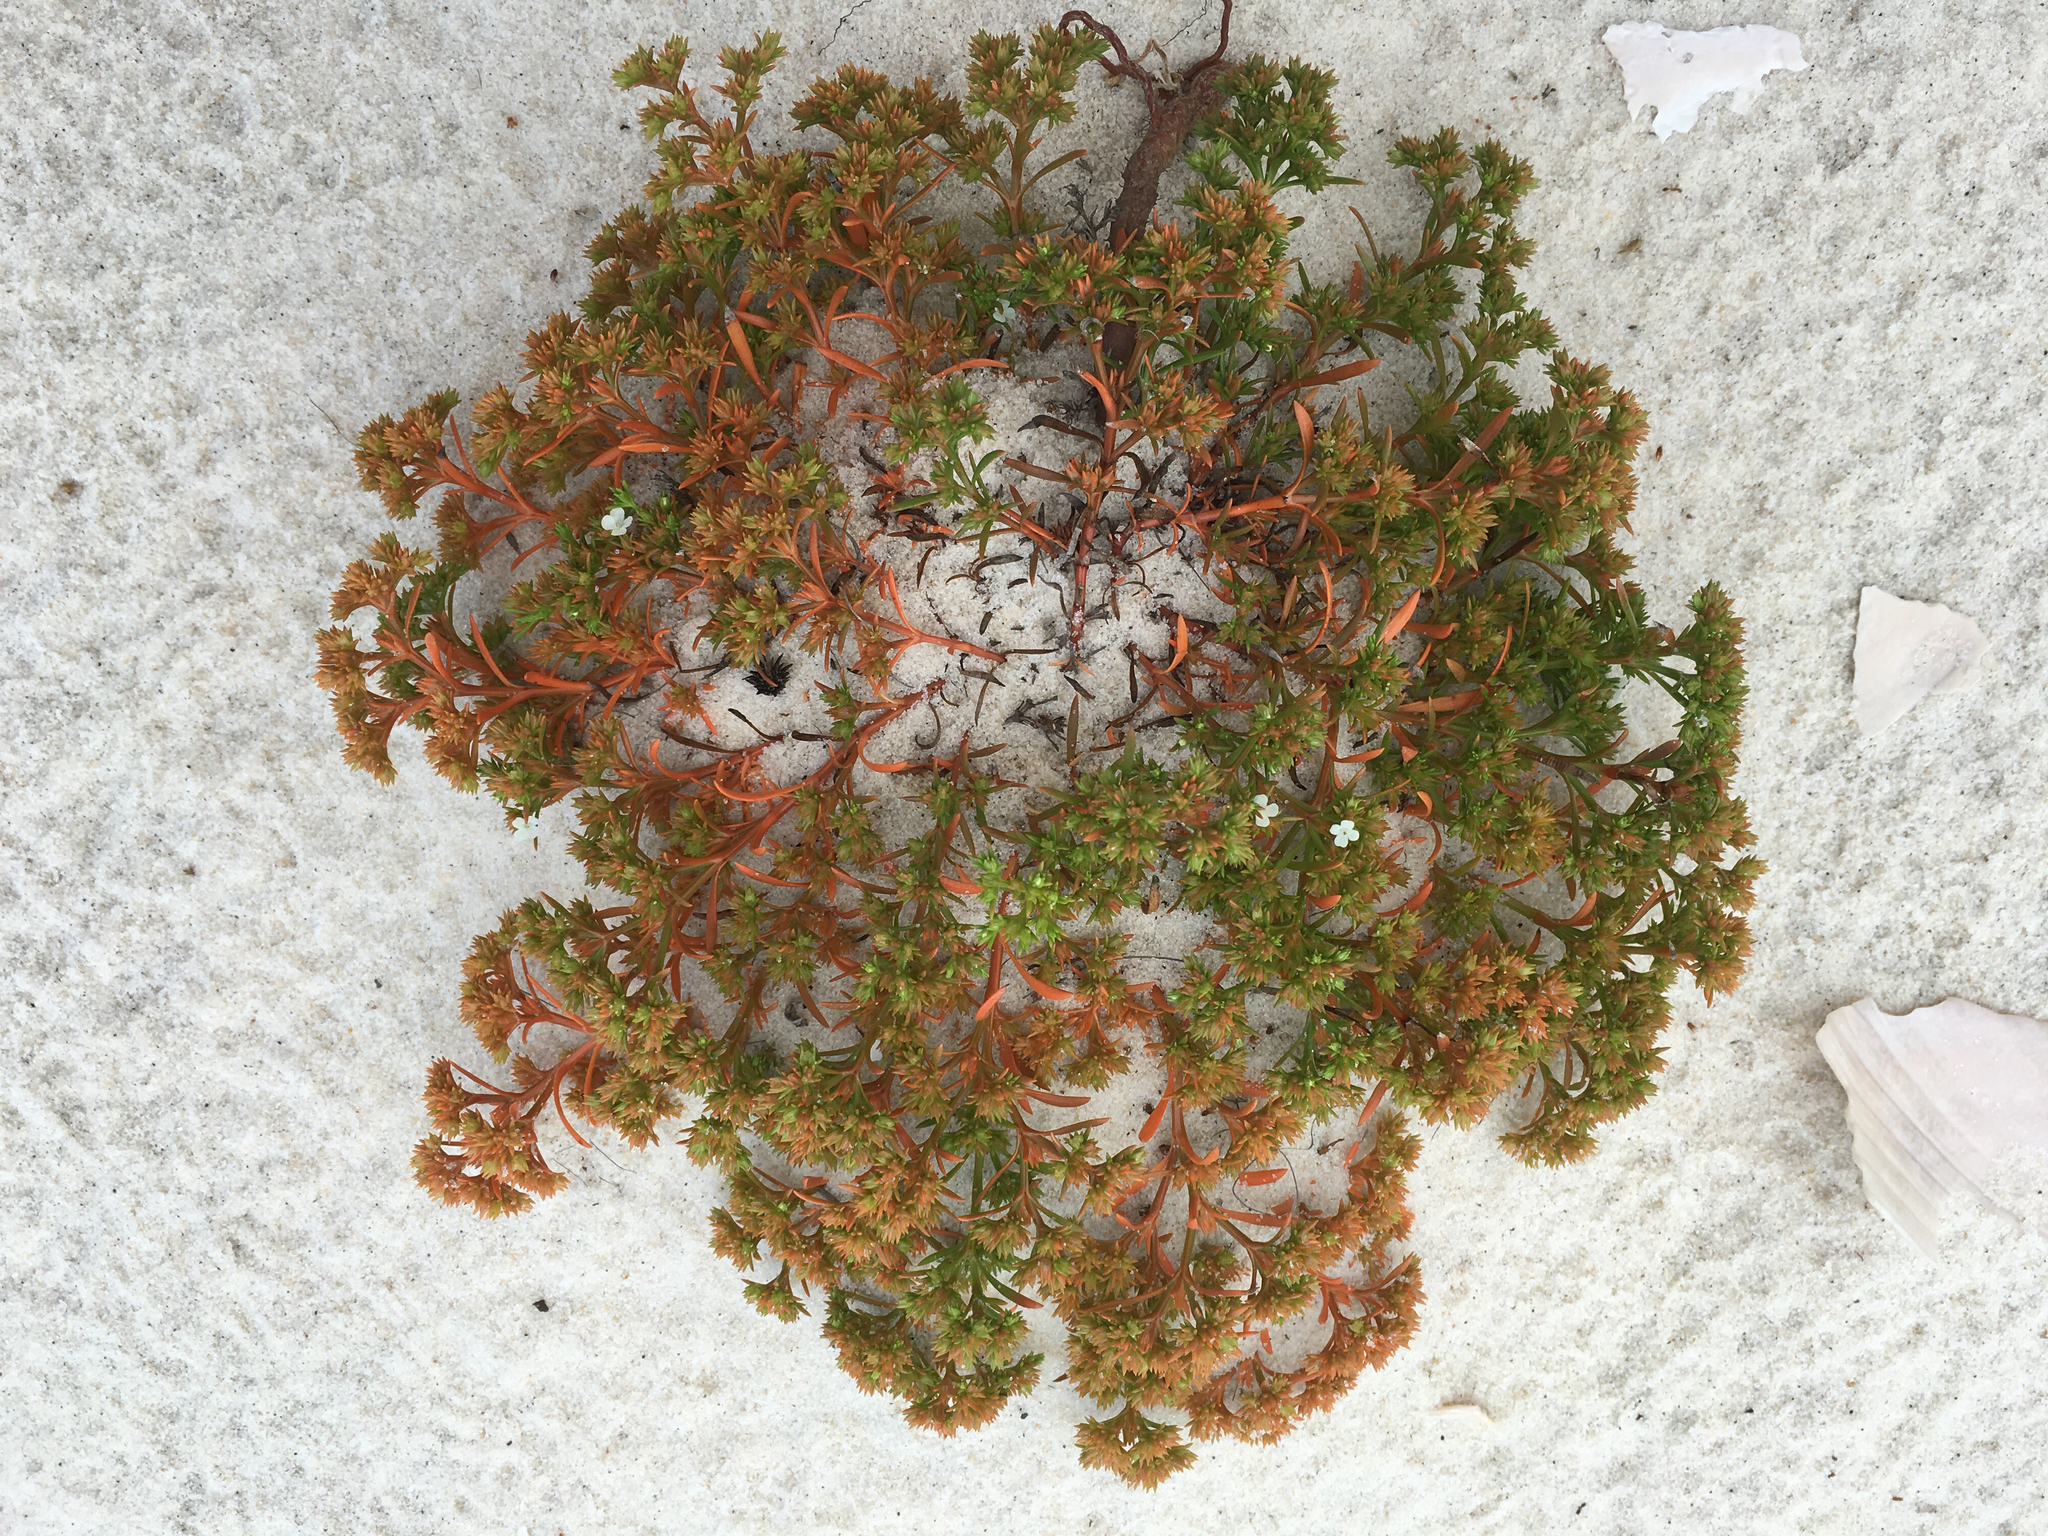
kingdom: Plantae
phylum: Tracheophyta
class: Magnoliopsida
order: Lamiales
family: Tetrachondraceae
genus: Polypremum
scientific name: Polypremum procumbens
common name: Juniper-leaf
